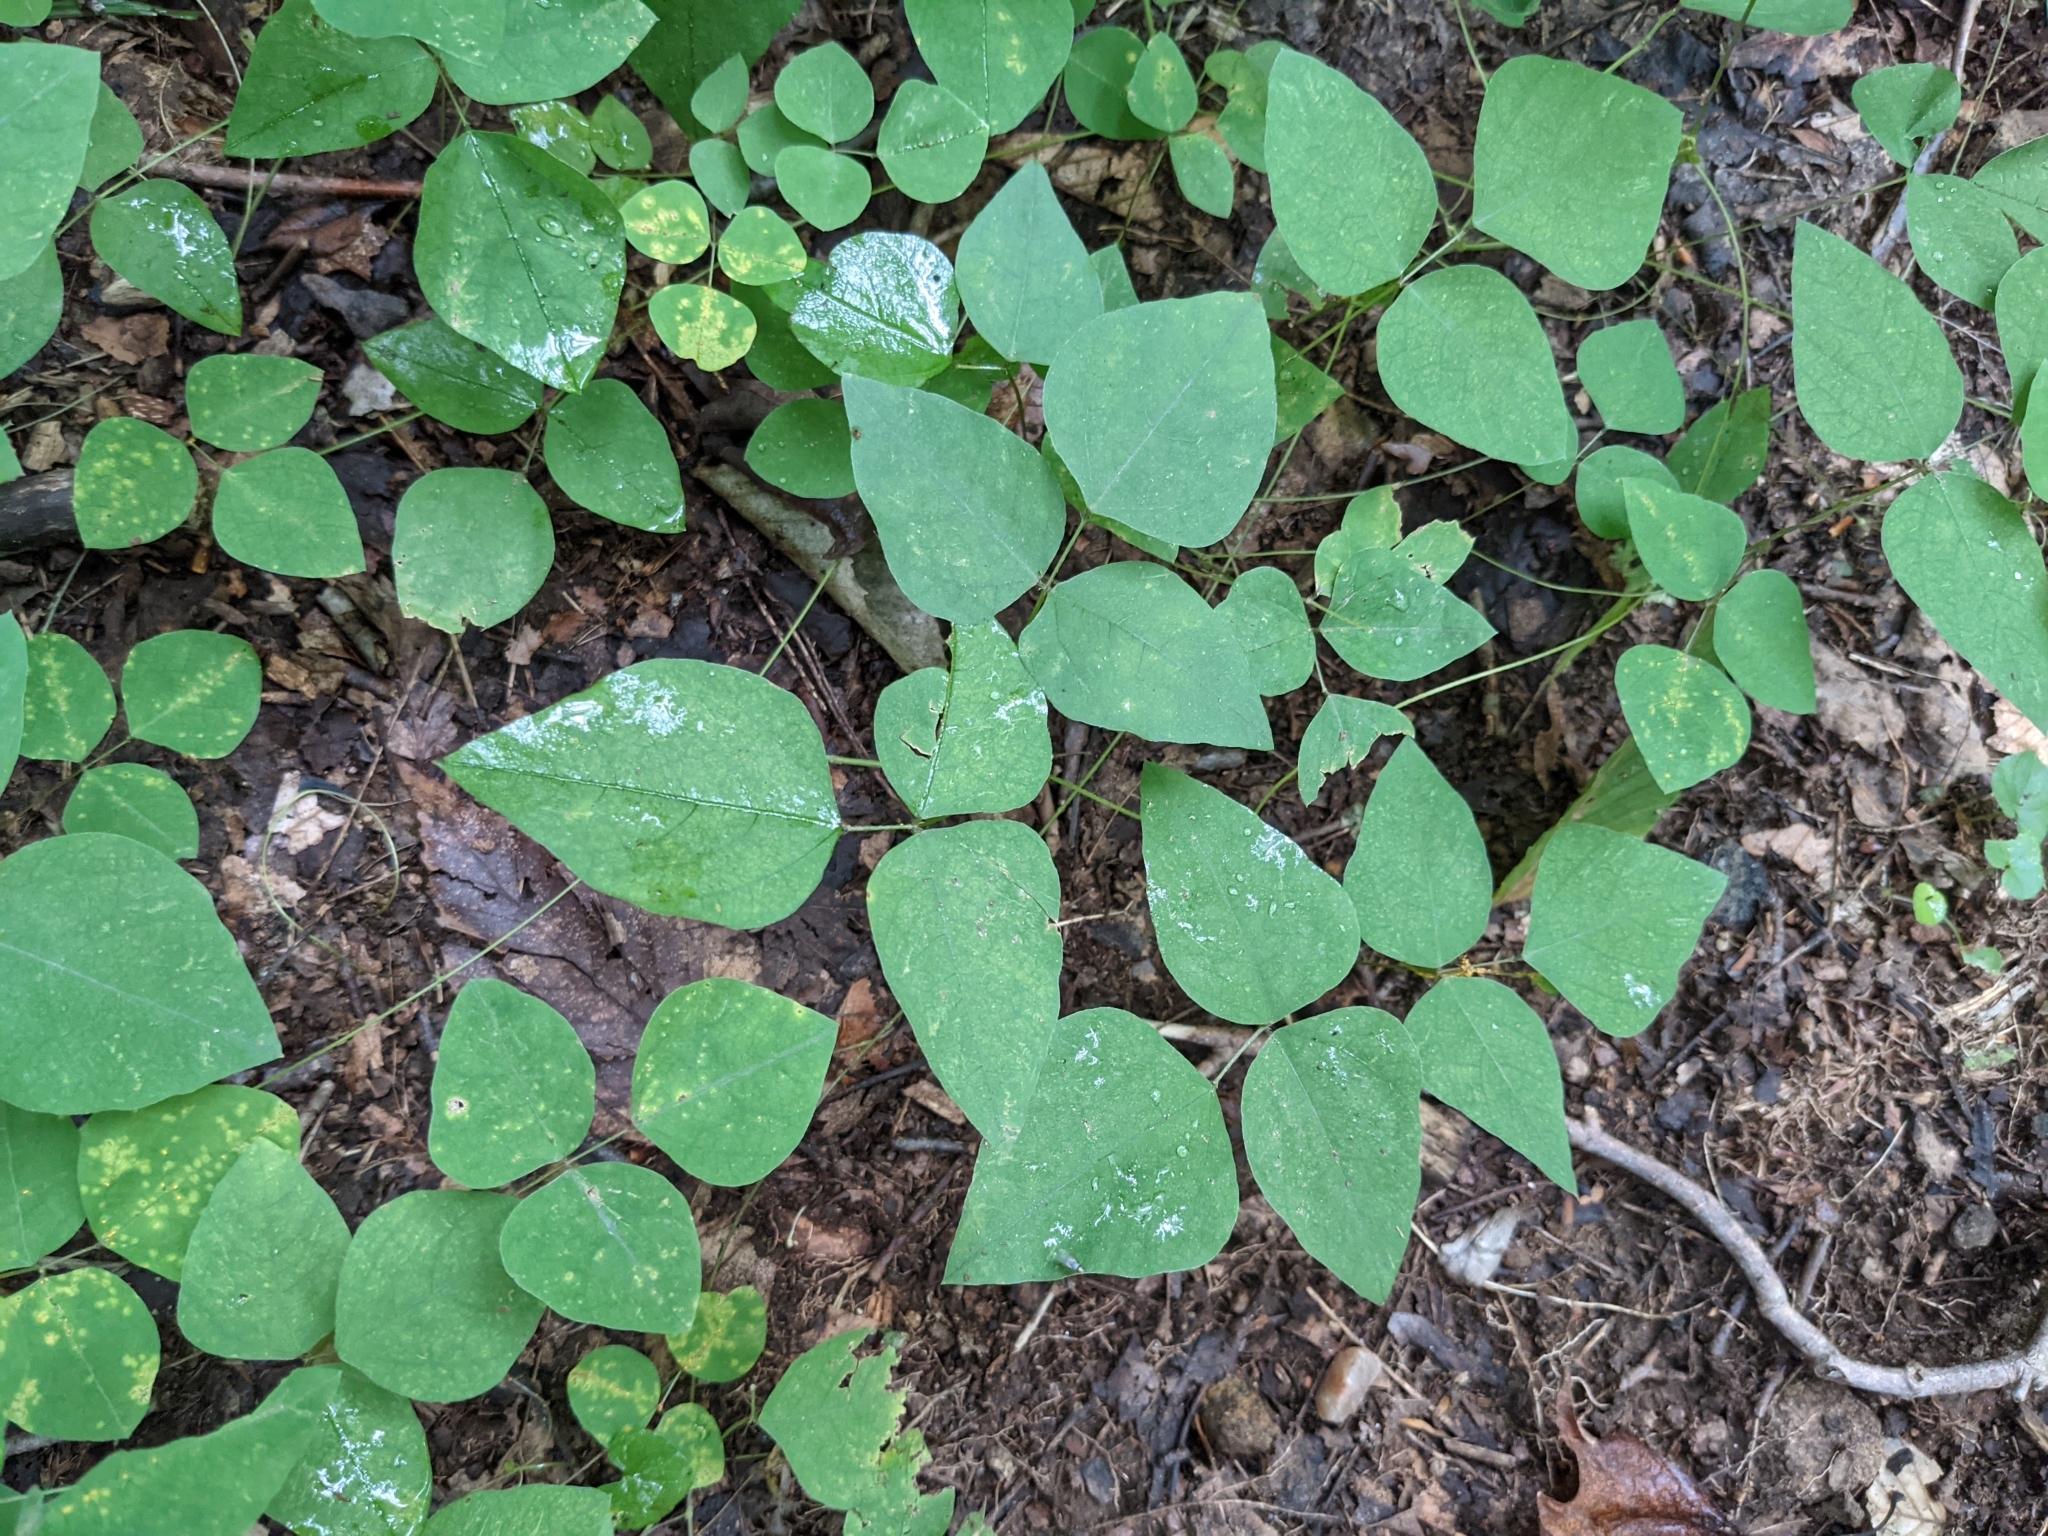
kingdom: Plantae
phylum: Tracheophyta
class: Magnoliopsida
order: Fabales
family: Fabaceae
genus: Amphicarpaea
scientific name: Amphicarpaea bracteata
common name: American hog peanut
